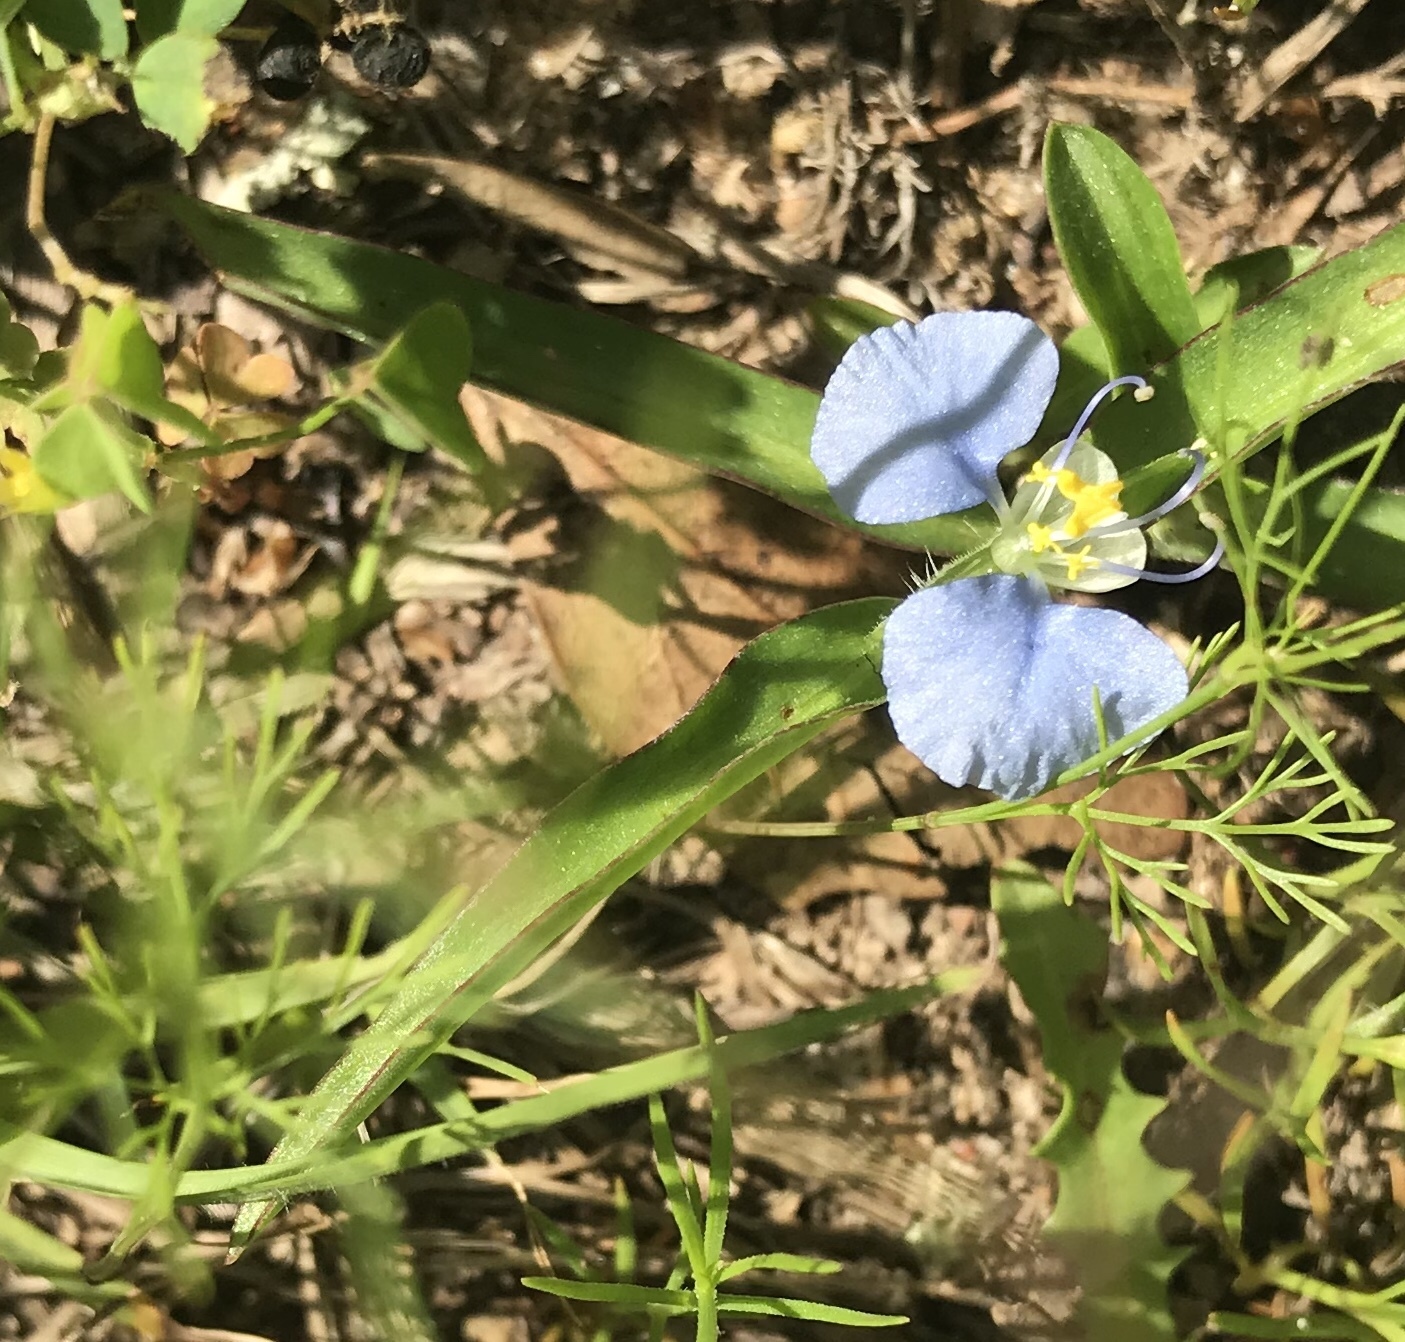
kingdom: Plantae
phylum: Tracheophyta
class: Liliopsida
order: Commelinales
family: Commelinaceae
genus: Commelina
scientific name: Commelina erecta
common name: Blousel blommetjie
